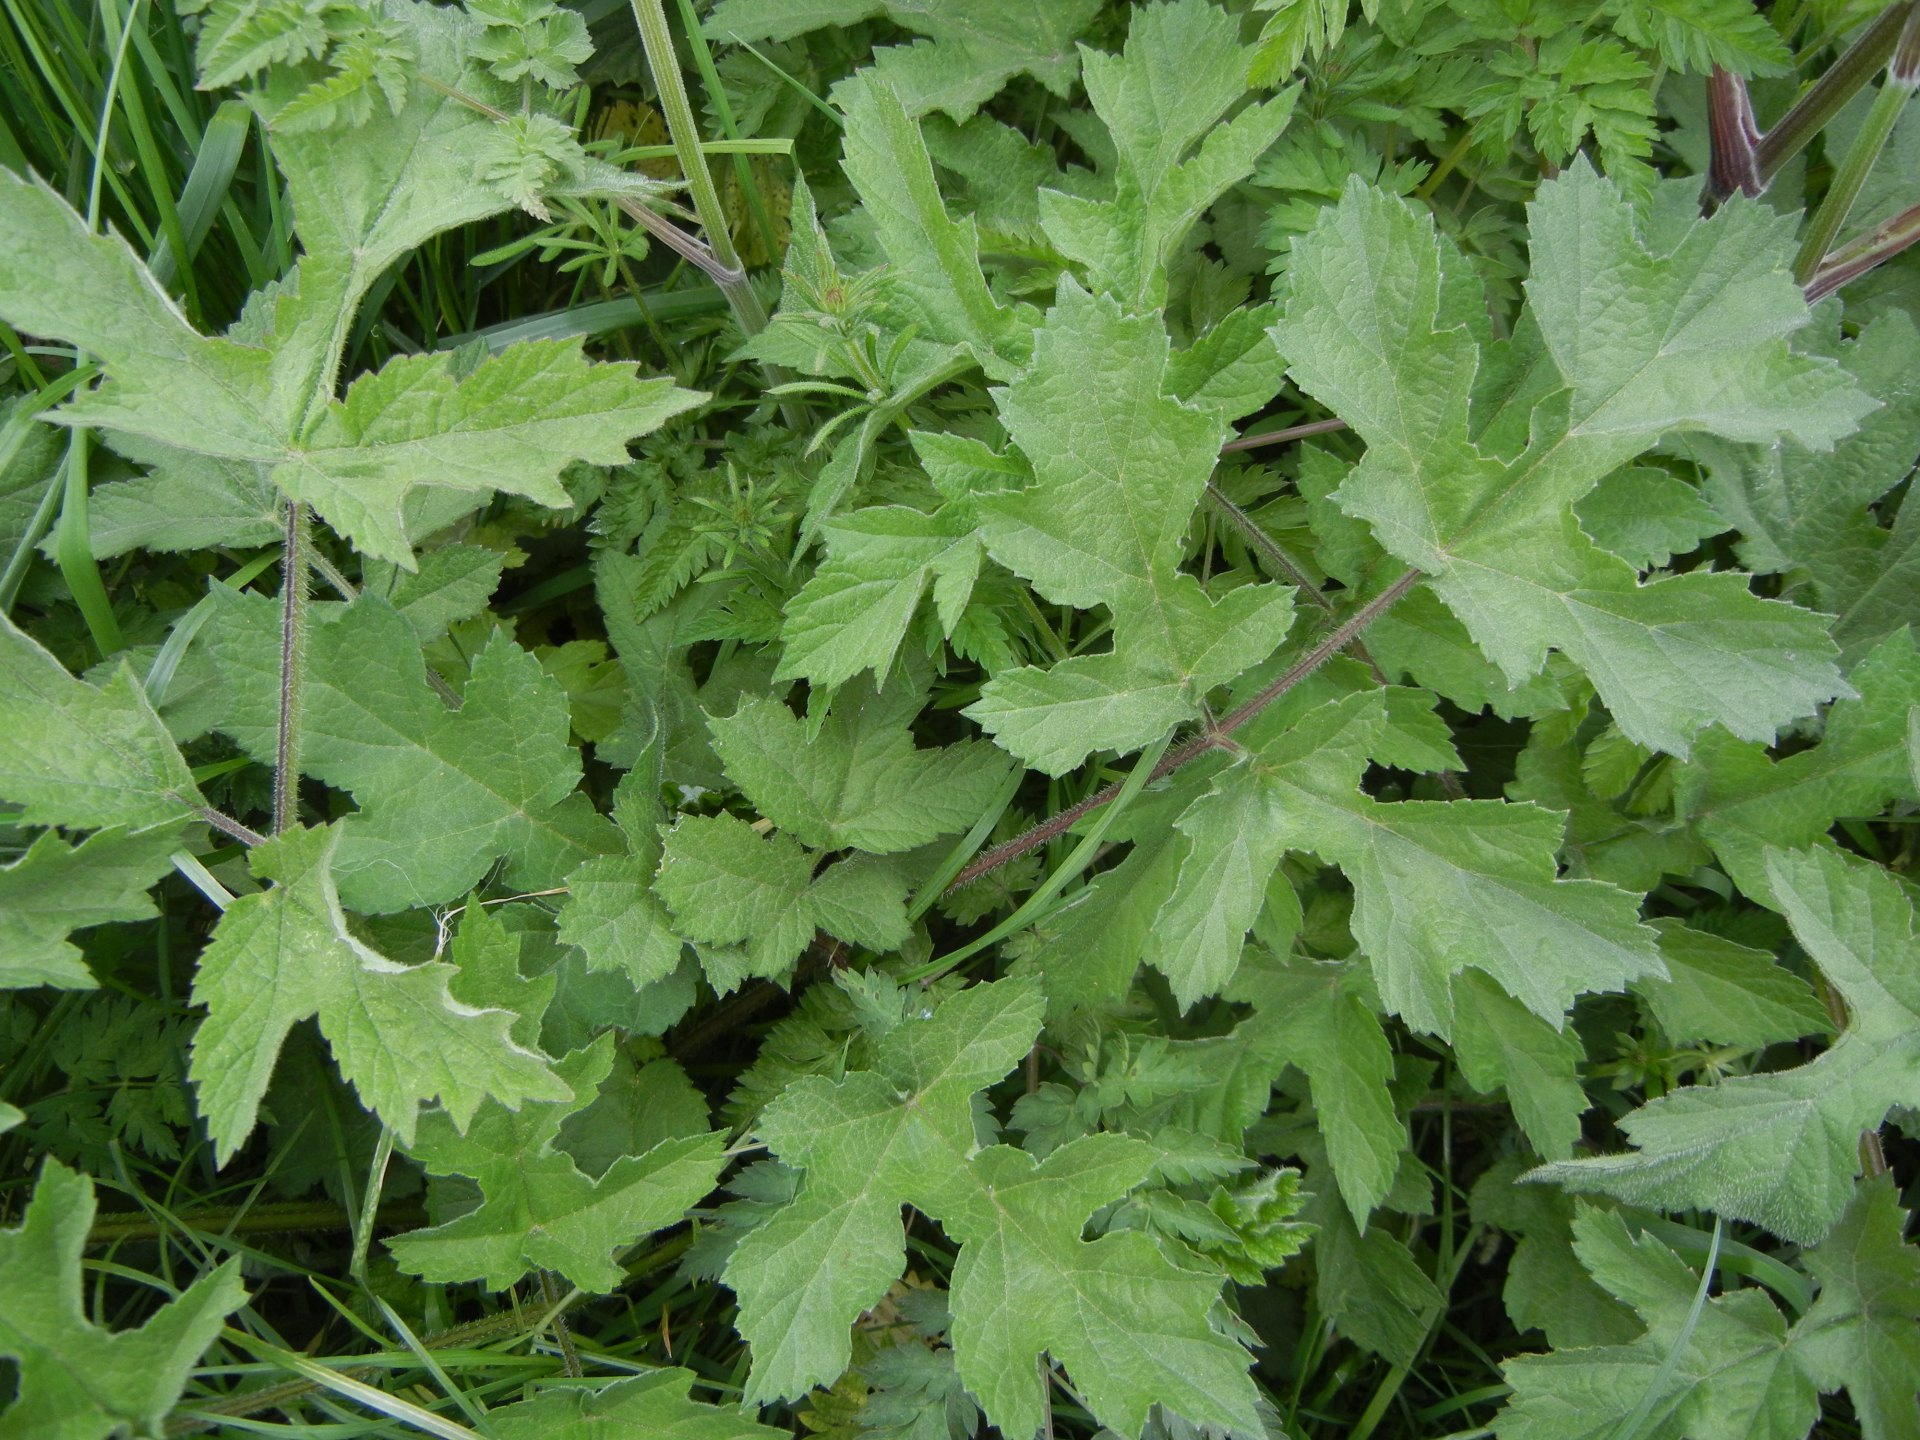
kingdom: Plantae
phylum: Tracheophyta
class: Magnoliopsida
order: Apiales
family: Apiaceae
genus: Heracleum
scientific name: Heracleum sphondylium
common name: Hogweed
